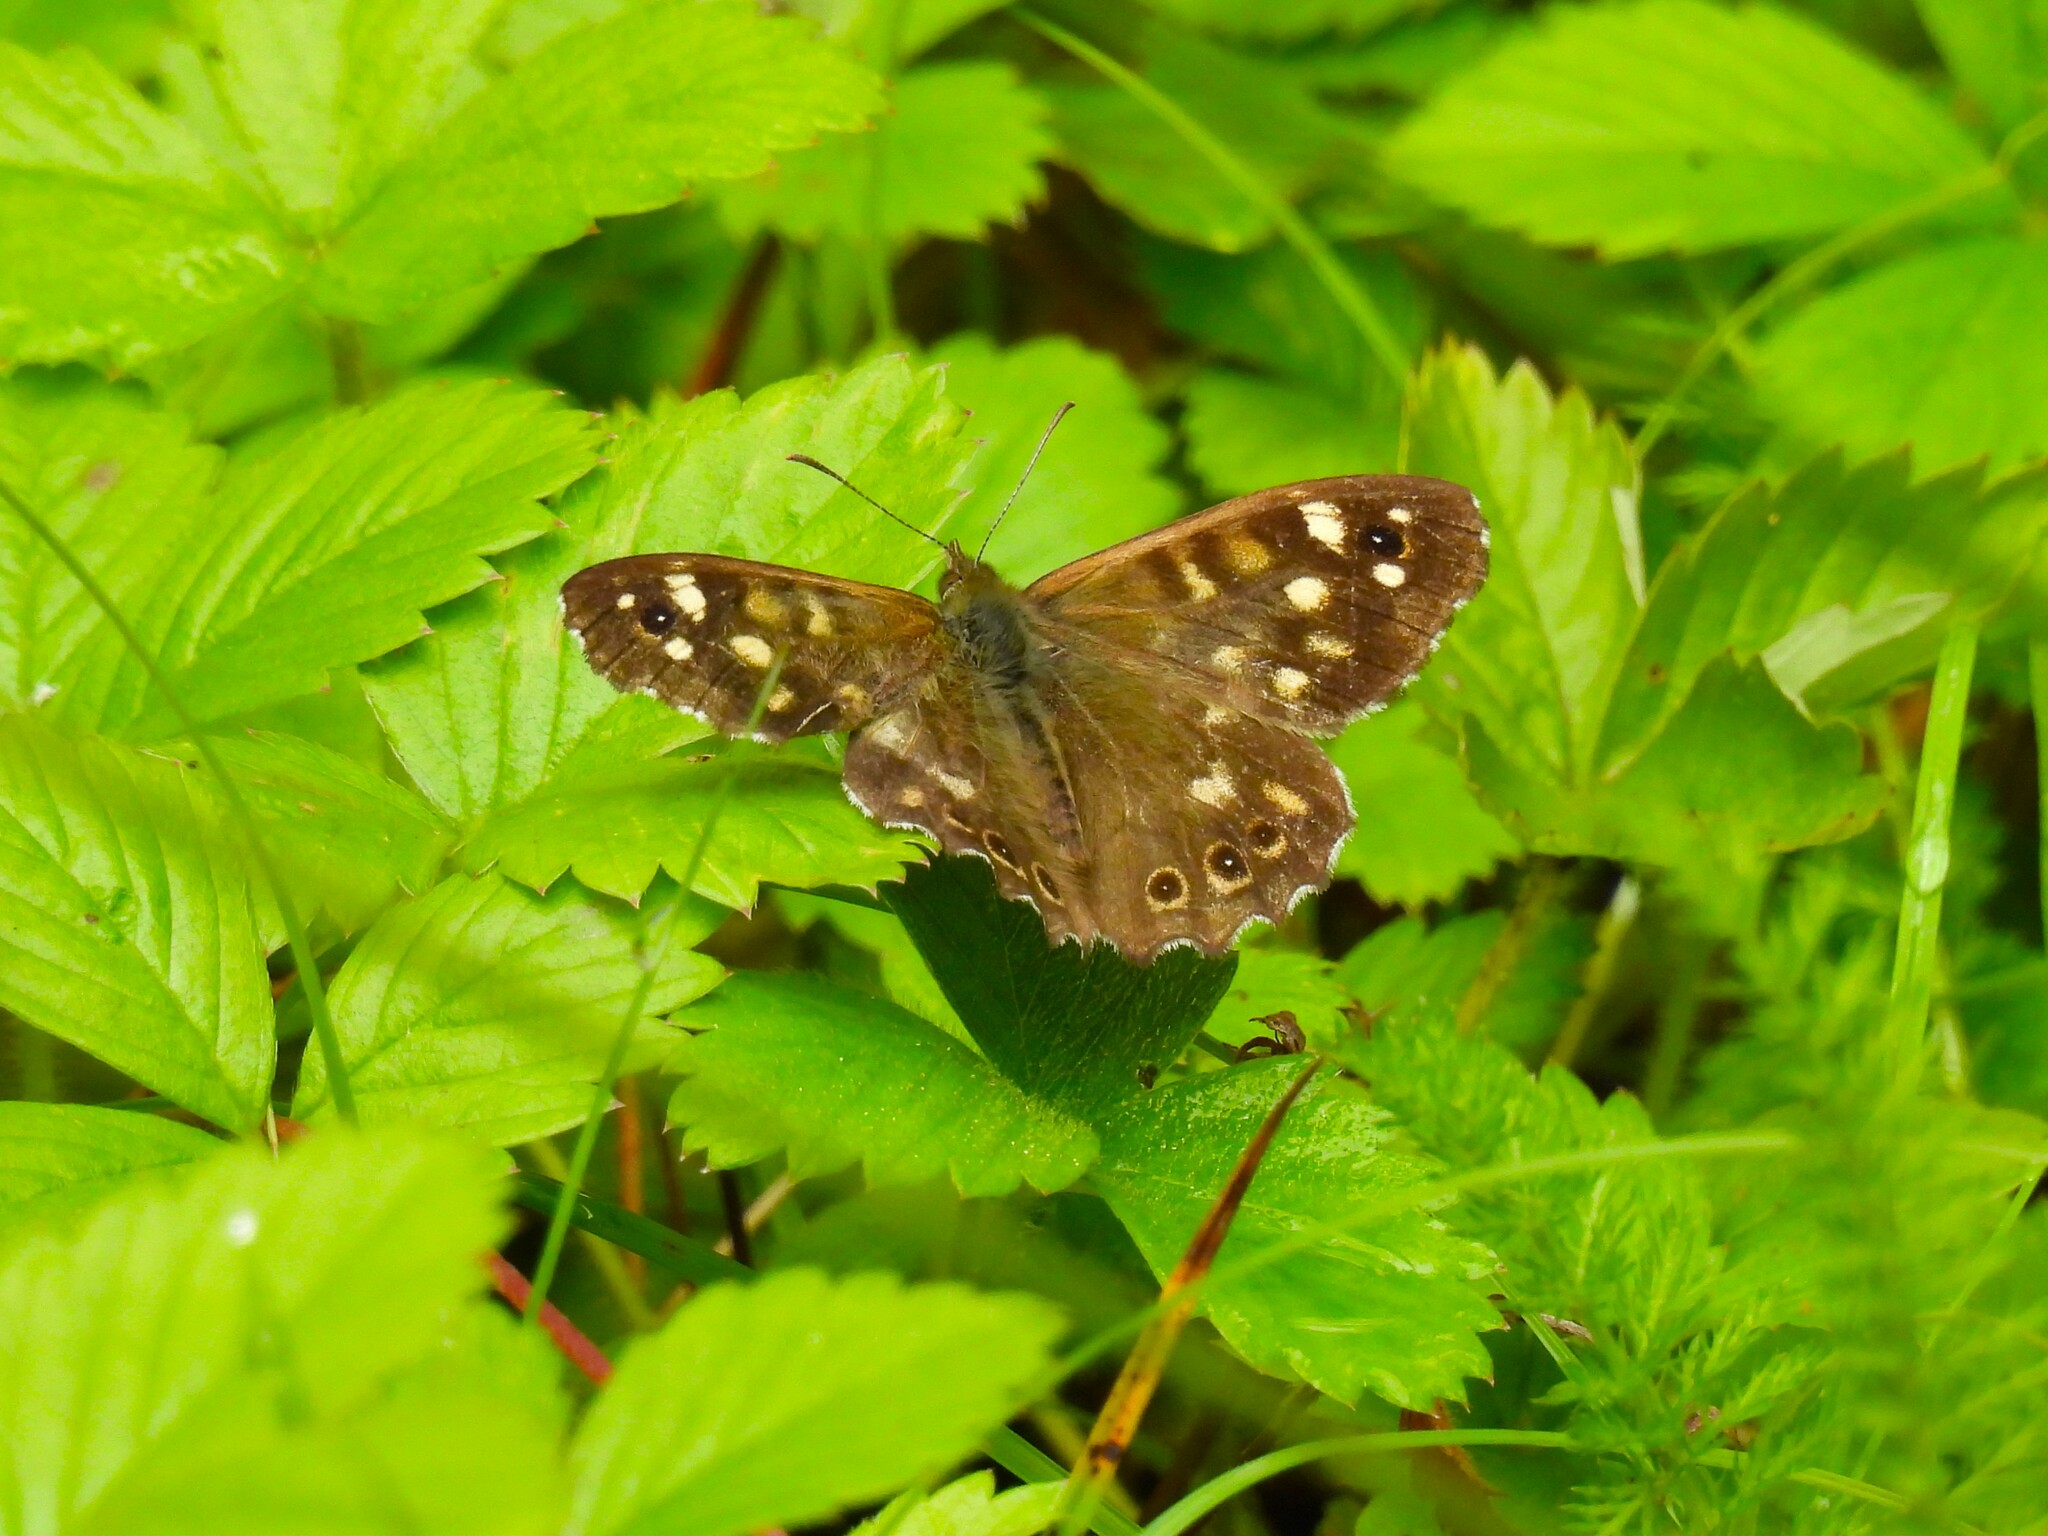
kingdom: Animalia
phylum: Arthropoda
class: Insecta
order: Lepidoptera
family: Nymphalidae
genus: Pararge
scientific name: Pararge aegeria
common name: Speckled wood
